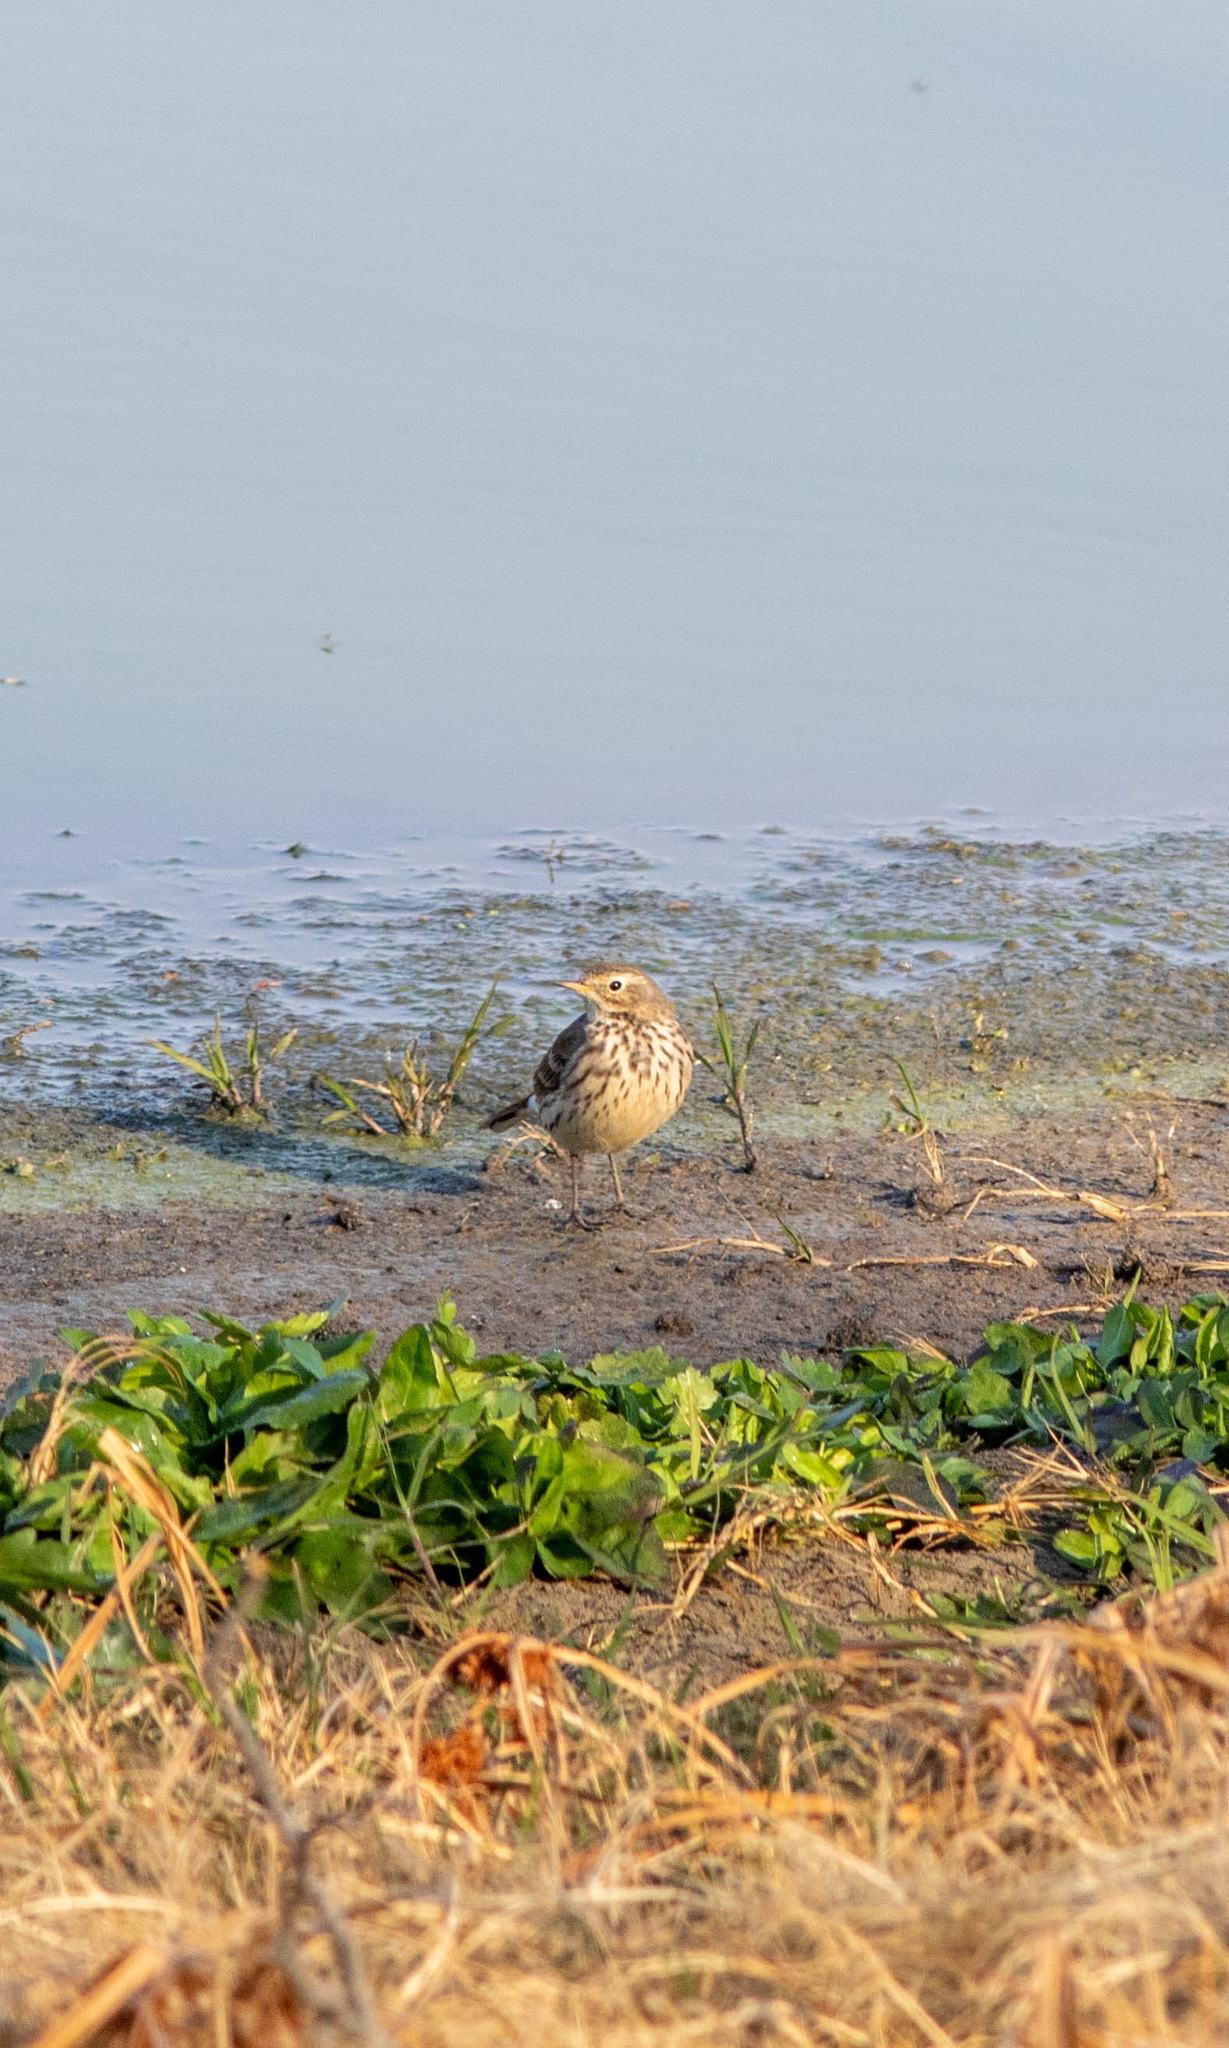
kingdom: Animalia
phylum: Chordata
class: Aves
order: Passeriformes
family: Motacillidae
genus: Anthus
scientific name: Anthus rubescens
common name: Buff-bellied pipit
